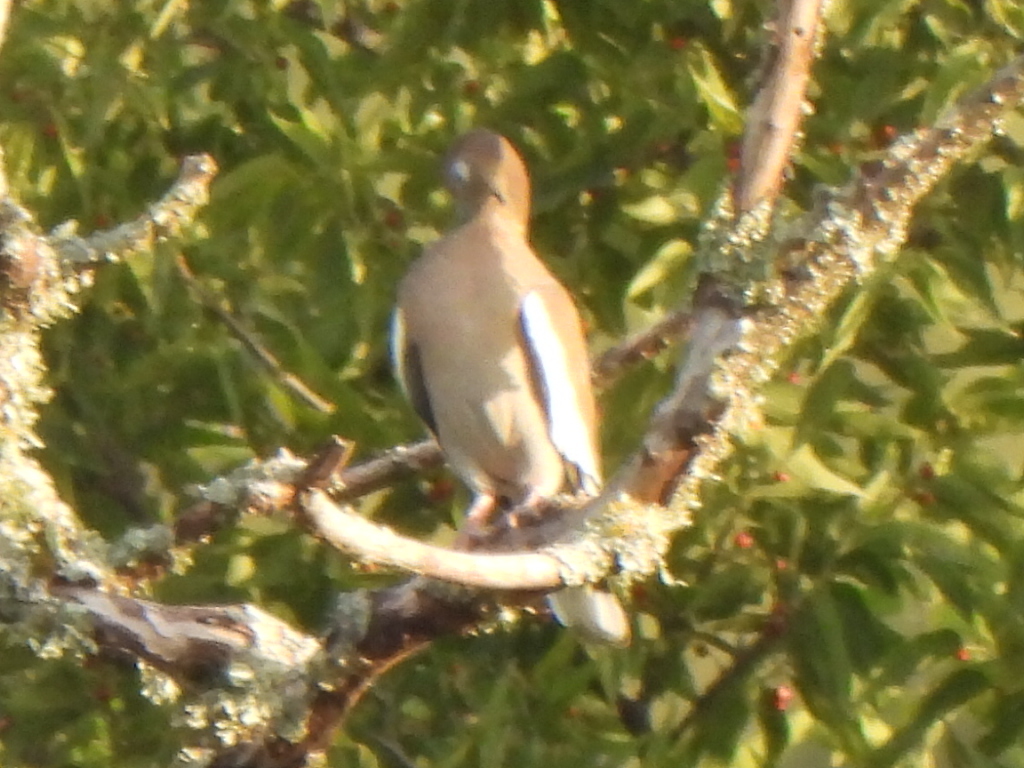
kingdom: Animalia
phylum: Chordata
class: Aves
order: Columbiformes
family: Columbidae
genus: Zenaida
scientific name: Zenaida asiatica
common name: White-winged dove
